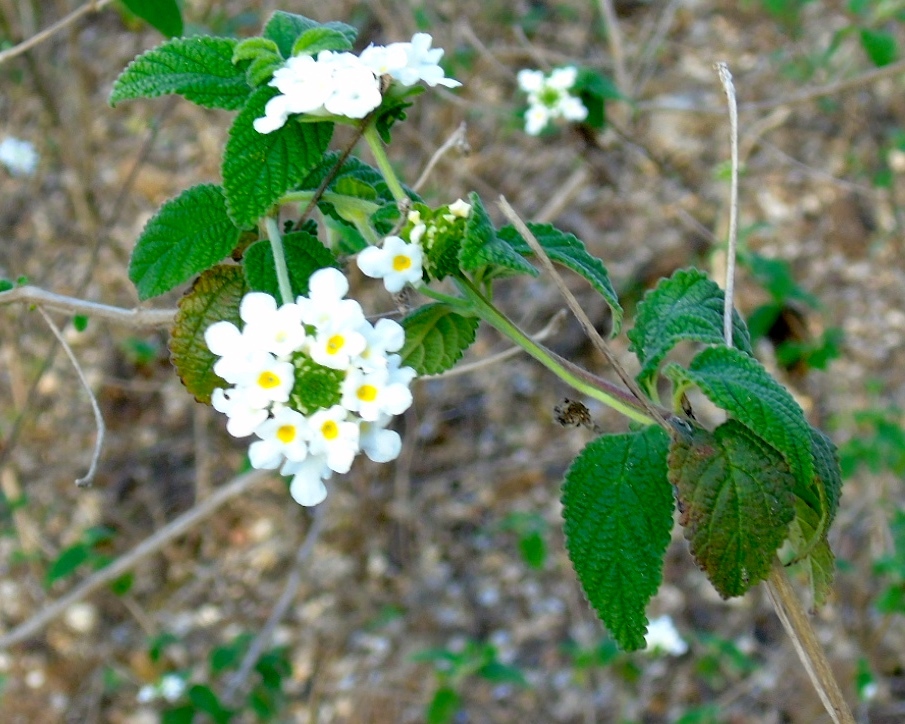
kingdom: Plantae
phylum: Tracheophyta
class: Magnoliopsida
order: Lamiales
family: Verbenaceae
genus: Lantana
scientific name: Lantana velutina
